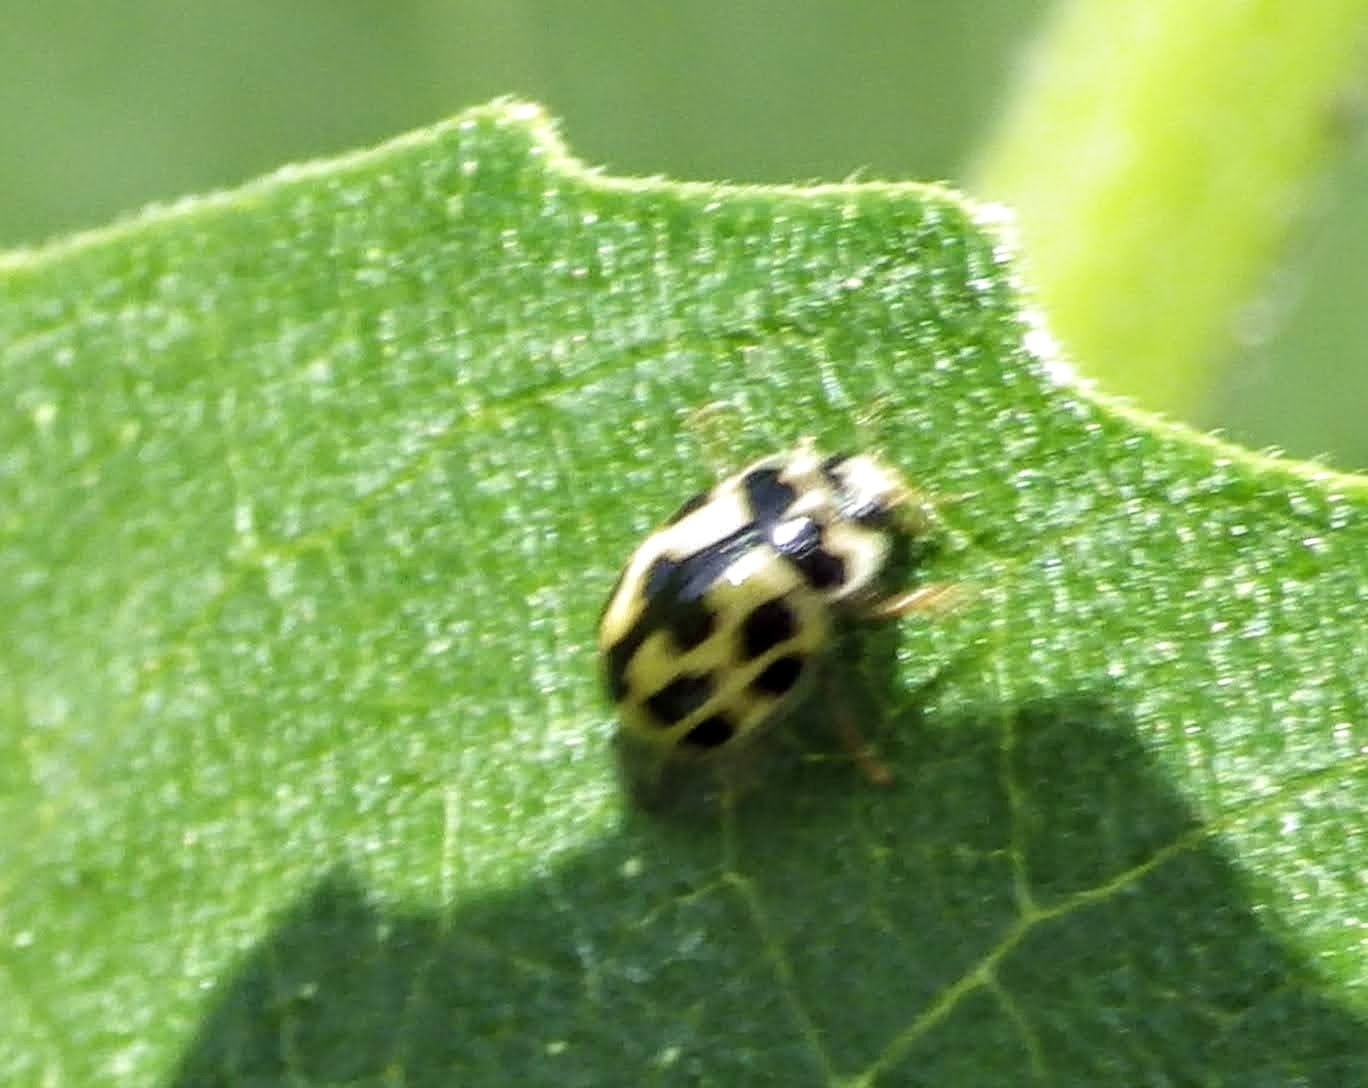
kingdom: Animalia
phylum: Arthropoda
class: Insecta
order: Coleoptera
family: Coccinellidae
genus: Propylaea
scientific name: Propylaea quatuordecimpunctata
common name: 14-spotted ladybird beetle
